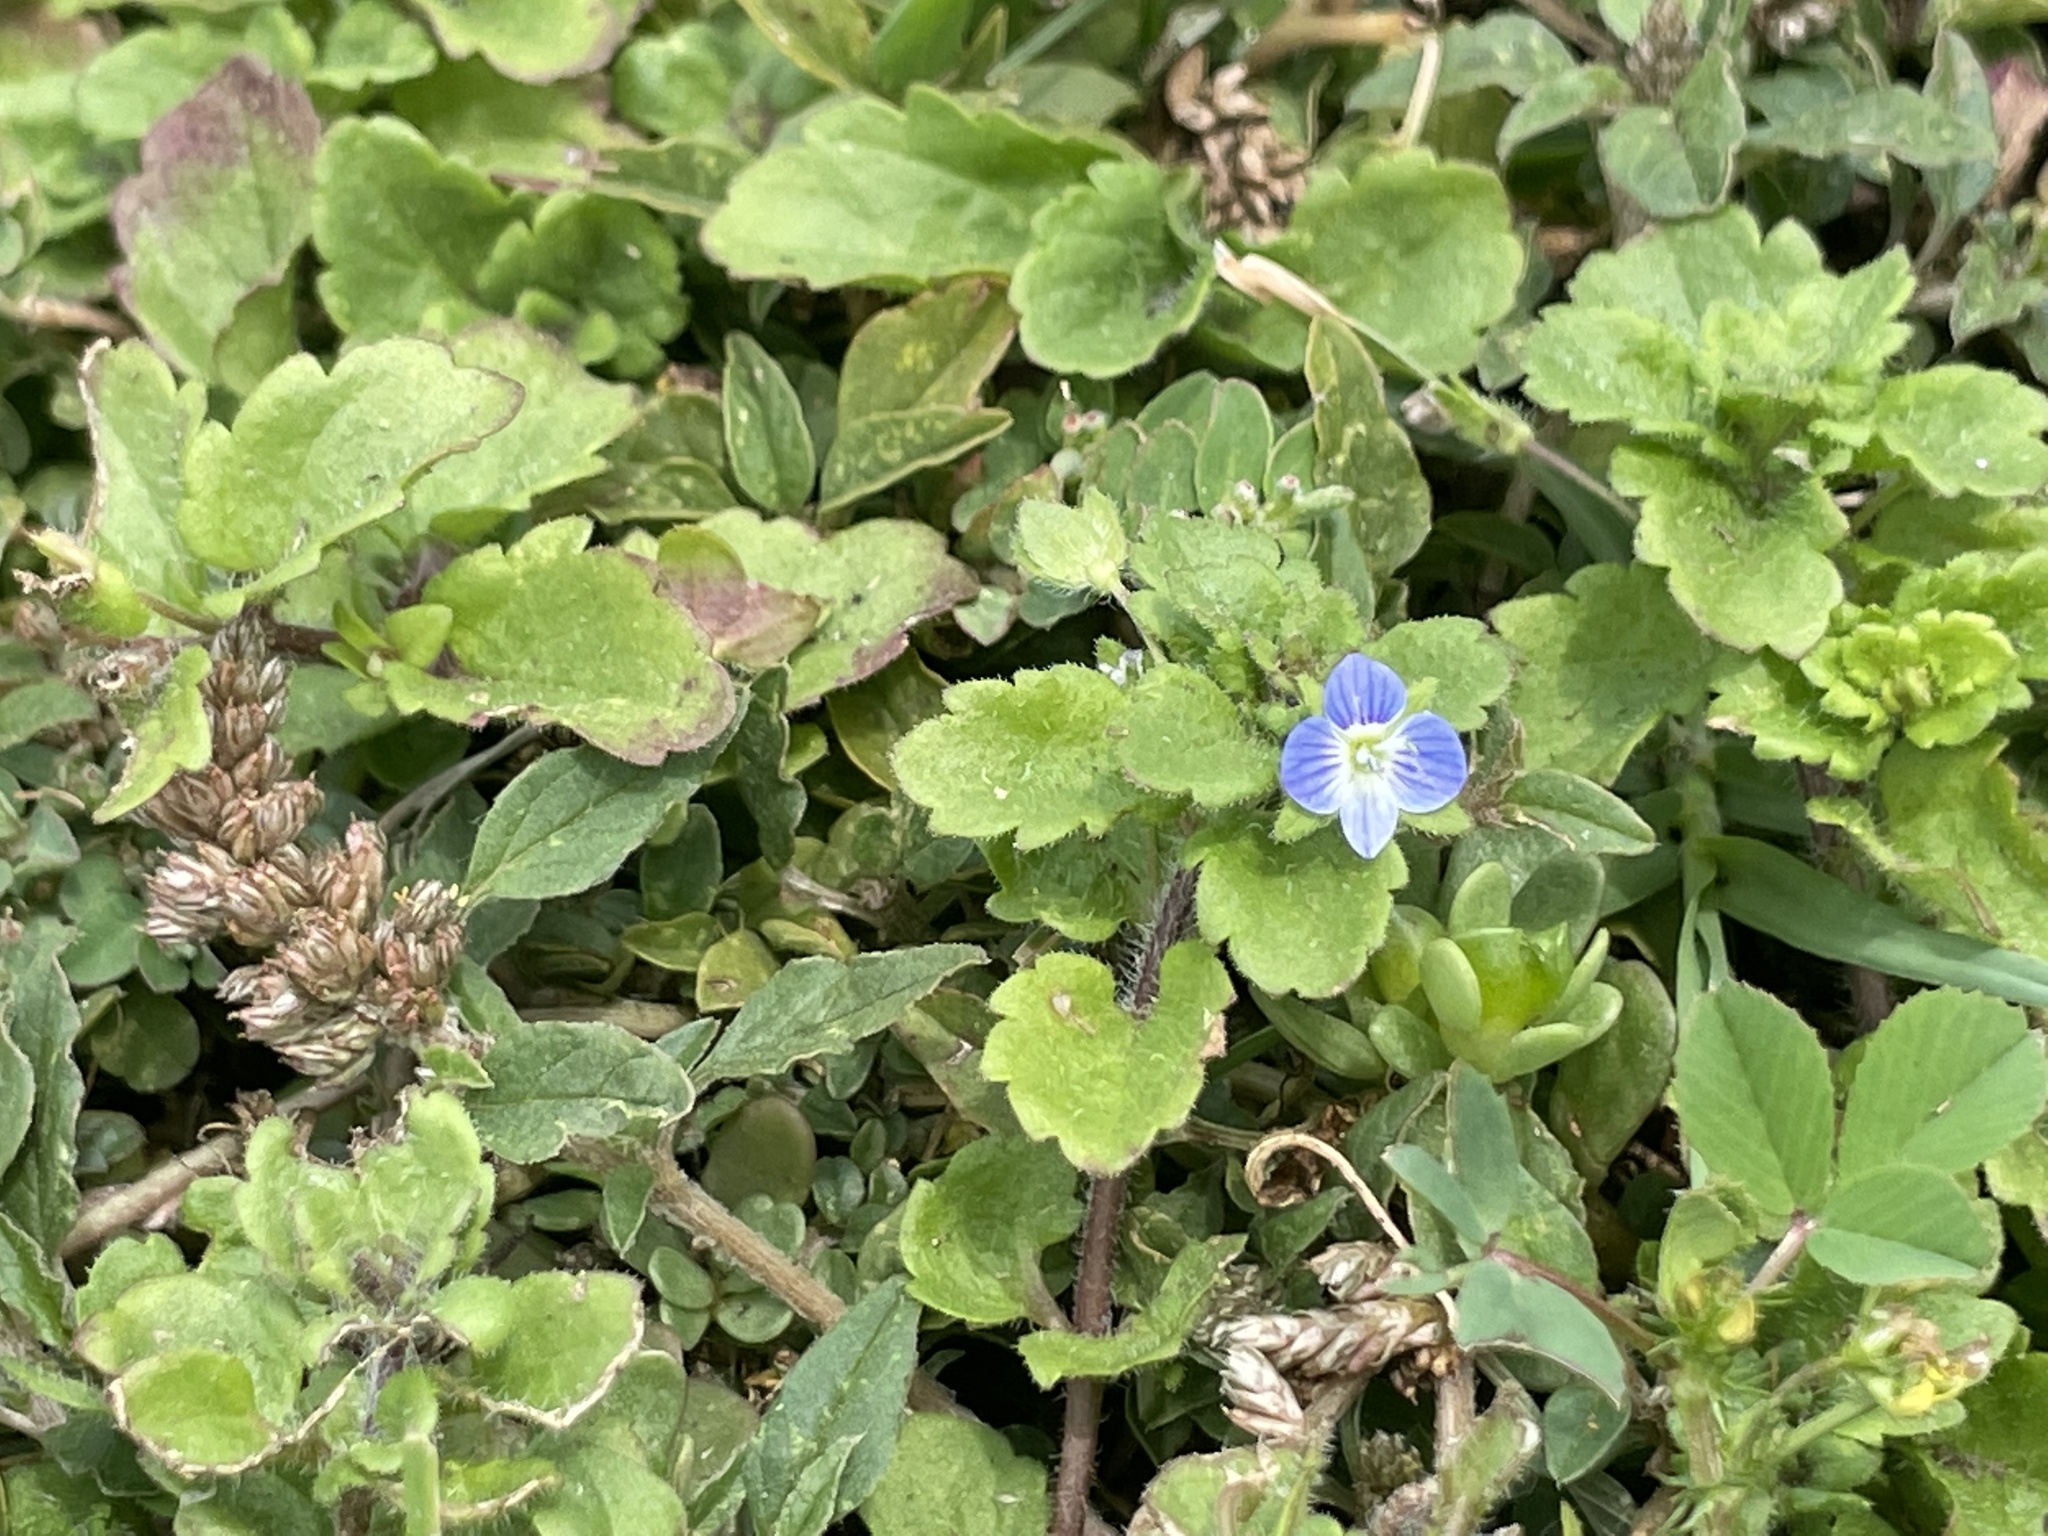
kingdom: Plantae
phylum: Tracheophyta
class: Magnoliopsida
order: Lamiales
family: Plantaginaceae
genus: Veronica
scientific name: Veronica persica
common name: Common field-speedwell
